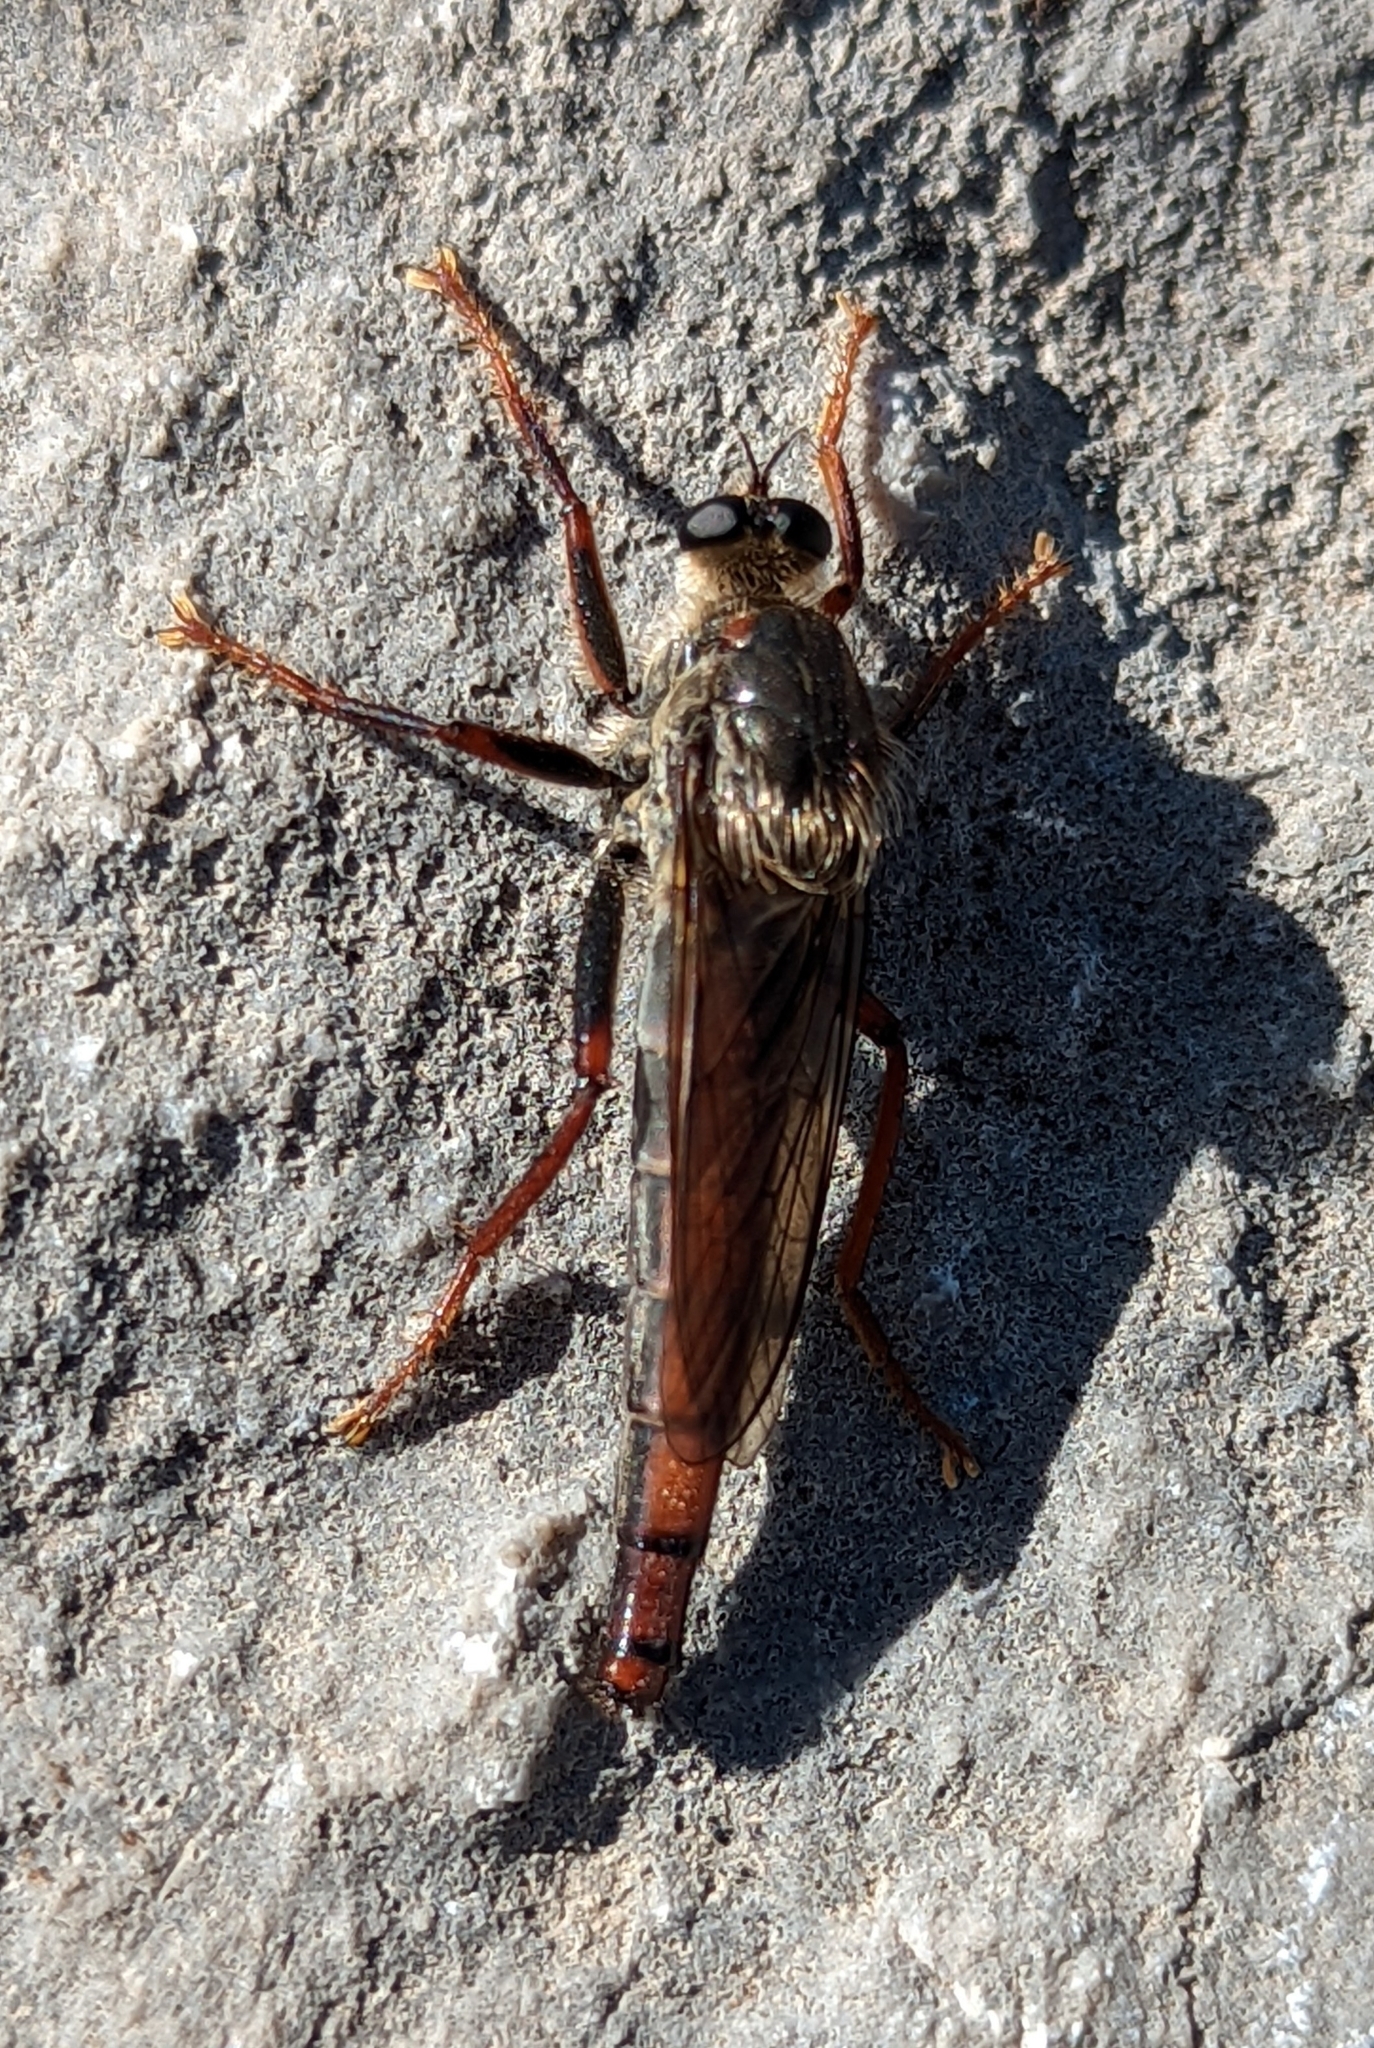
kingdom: Animalia
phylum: Arthropoda
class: Insecta
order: Diptera
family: Asilidae
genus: Stenopogon
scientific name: Stenopogon inquinatus
